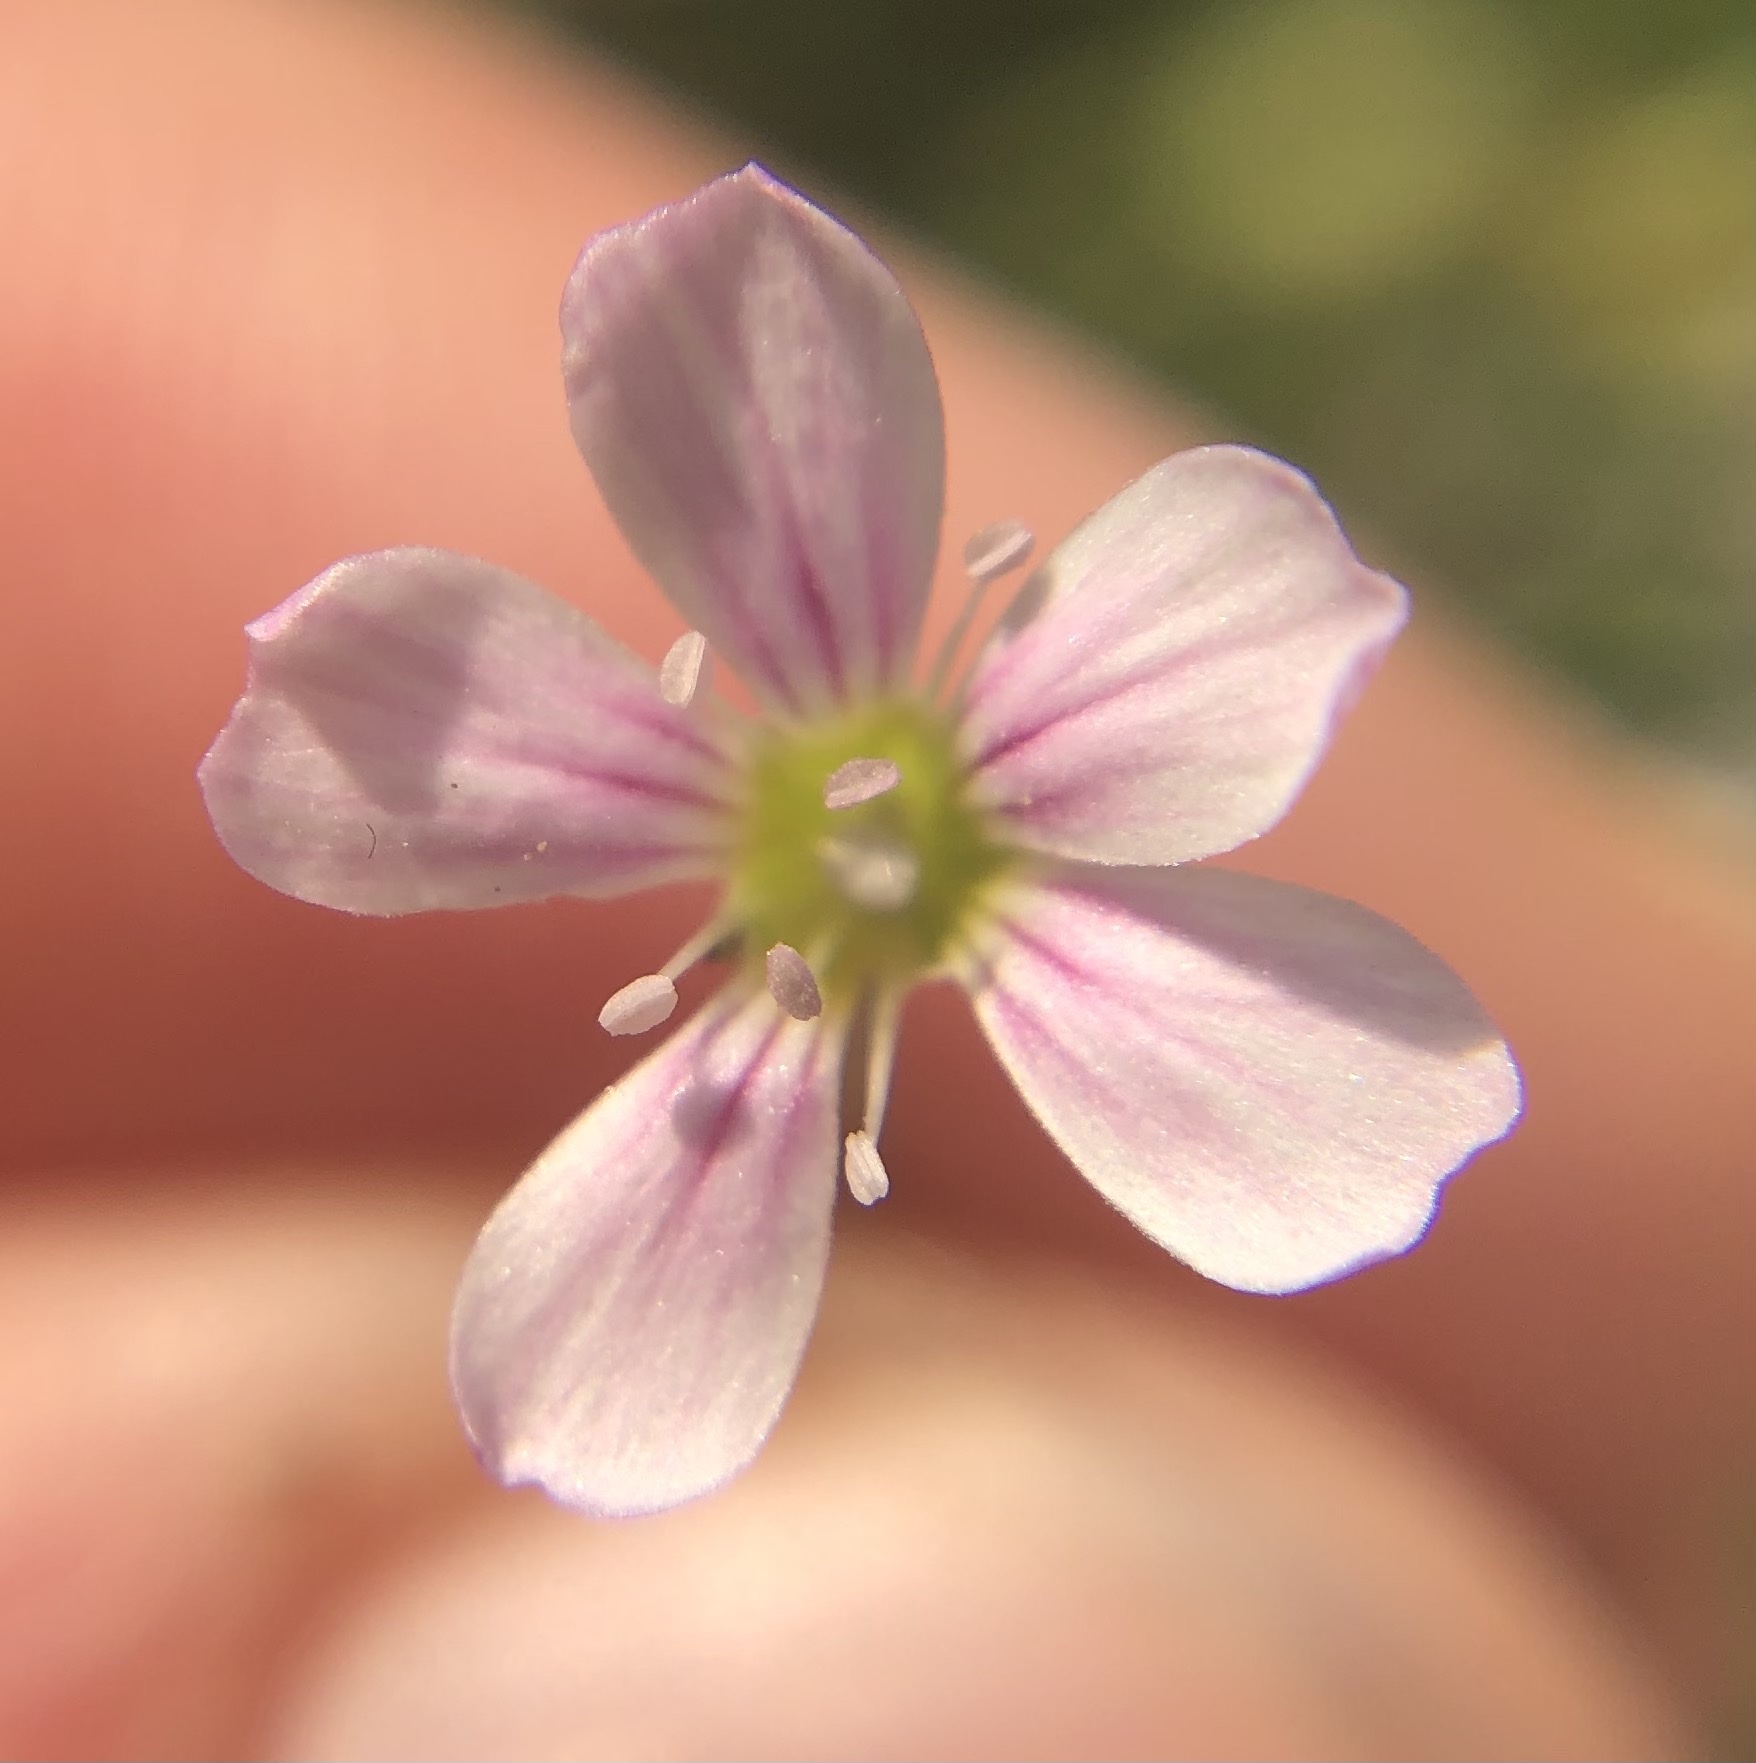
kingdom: Plantae
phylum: Tracheophyta
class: Magnoliopsida
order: Caryophyllales
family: Caryophyllaceae
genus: Petrorhagia
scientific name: Petrorhagia saxifraga
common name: Tunicflower
